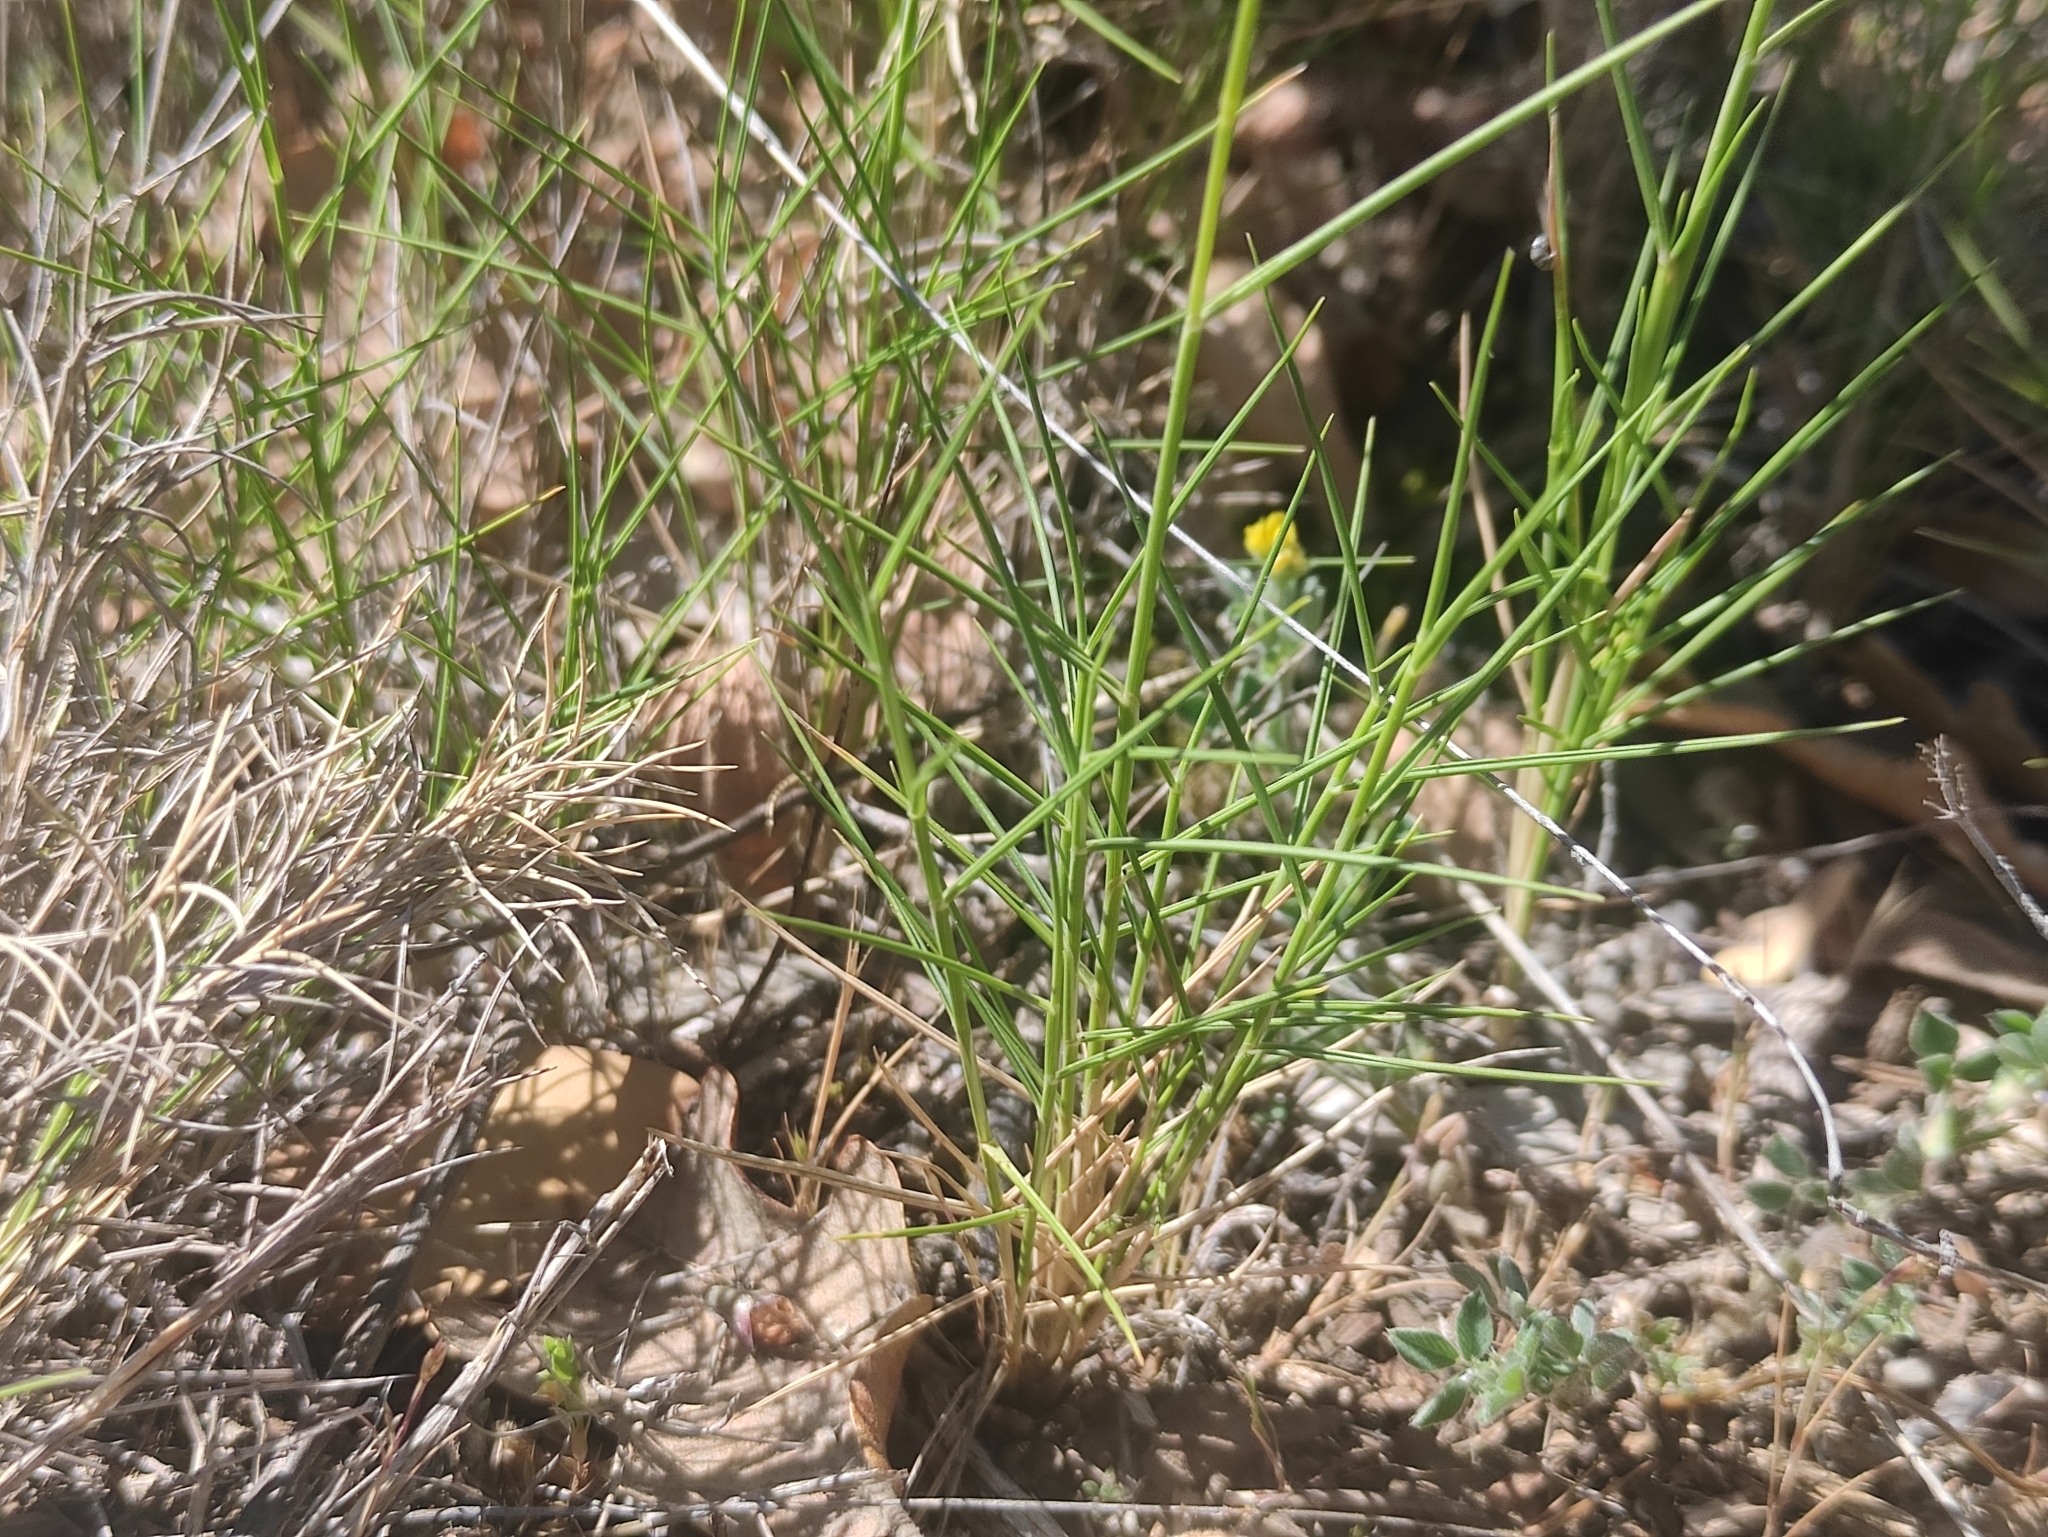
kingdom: Plantae
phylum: Tracheophyta
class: Liliopsida
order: Poales
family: Poaceae
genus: Brachypodium
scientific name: Brachypodium retusum
